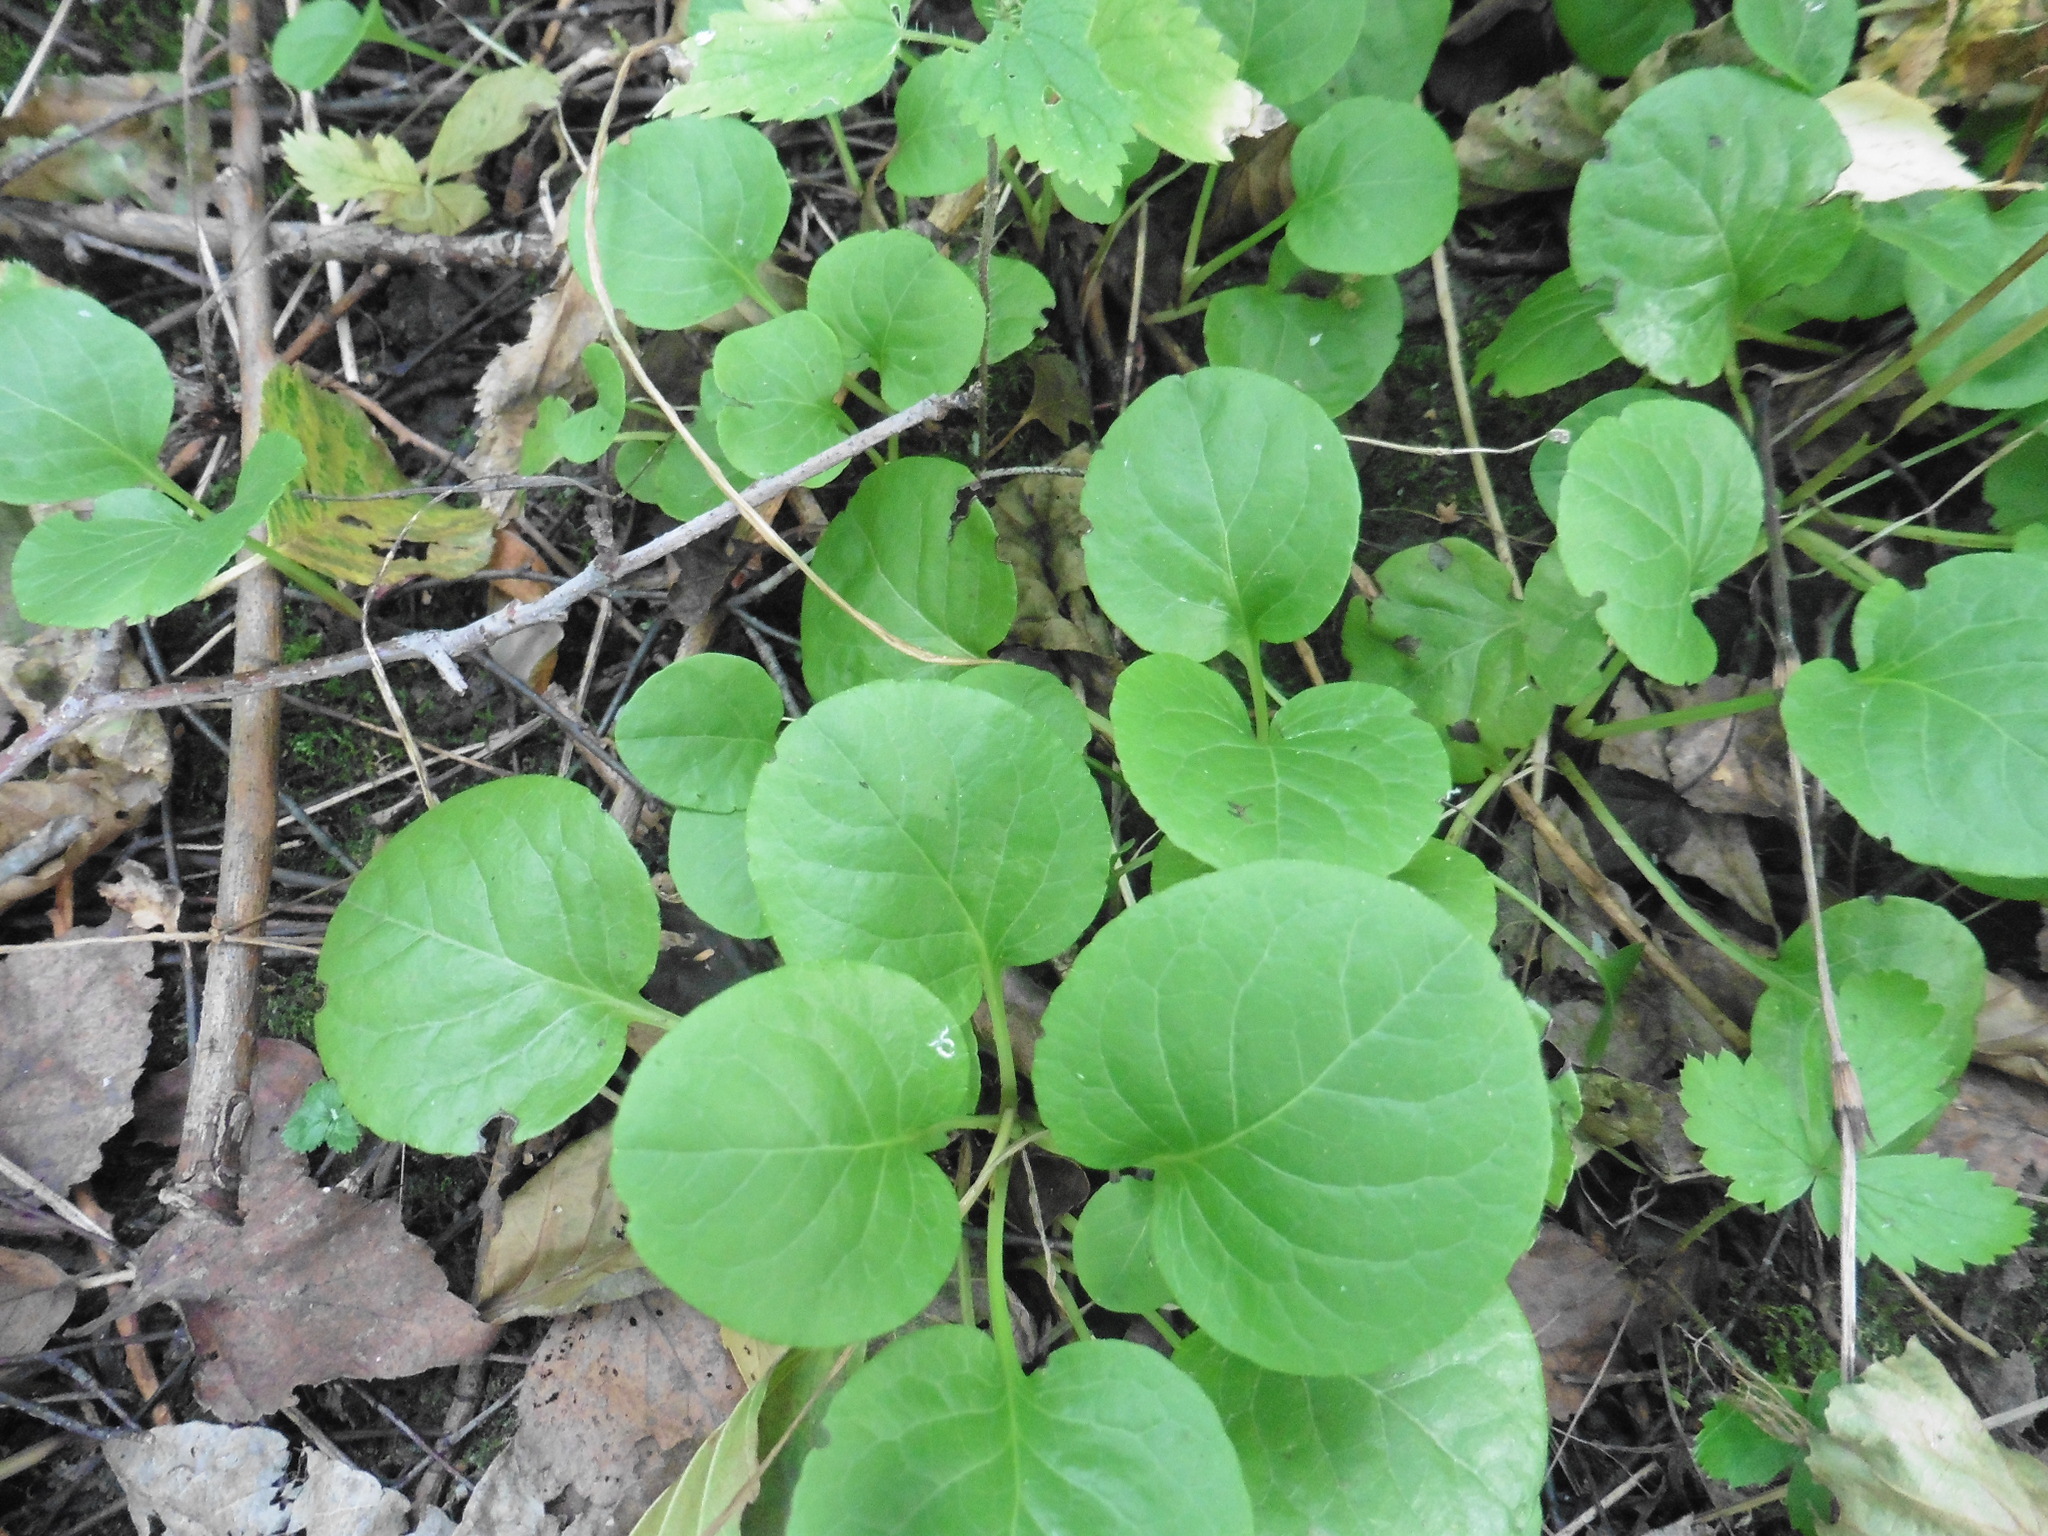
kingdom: Plantae
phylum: Tracheophyta
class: Magnoliopsida
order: Ericales
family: Ericaceae
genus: Pyrola
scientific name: Pyrola
